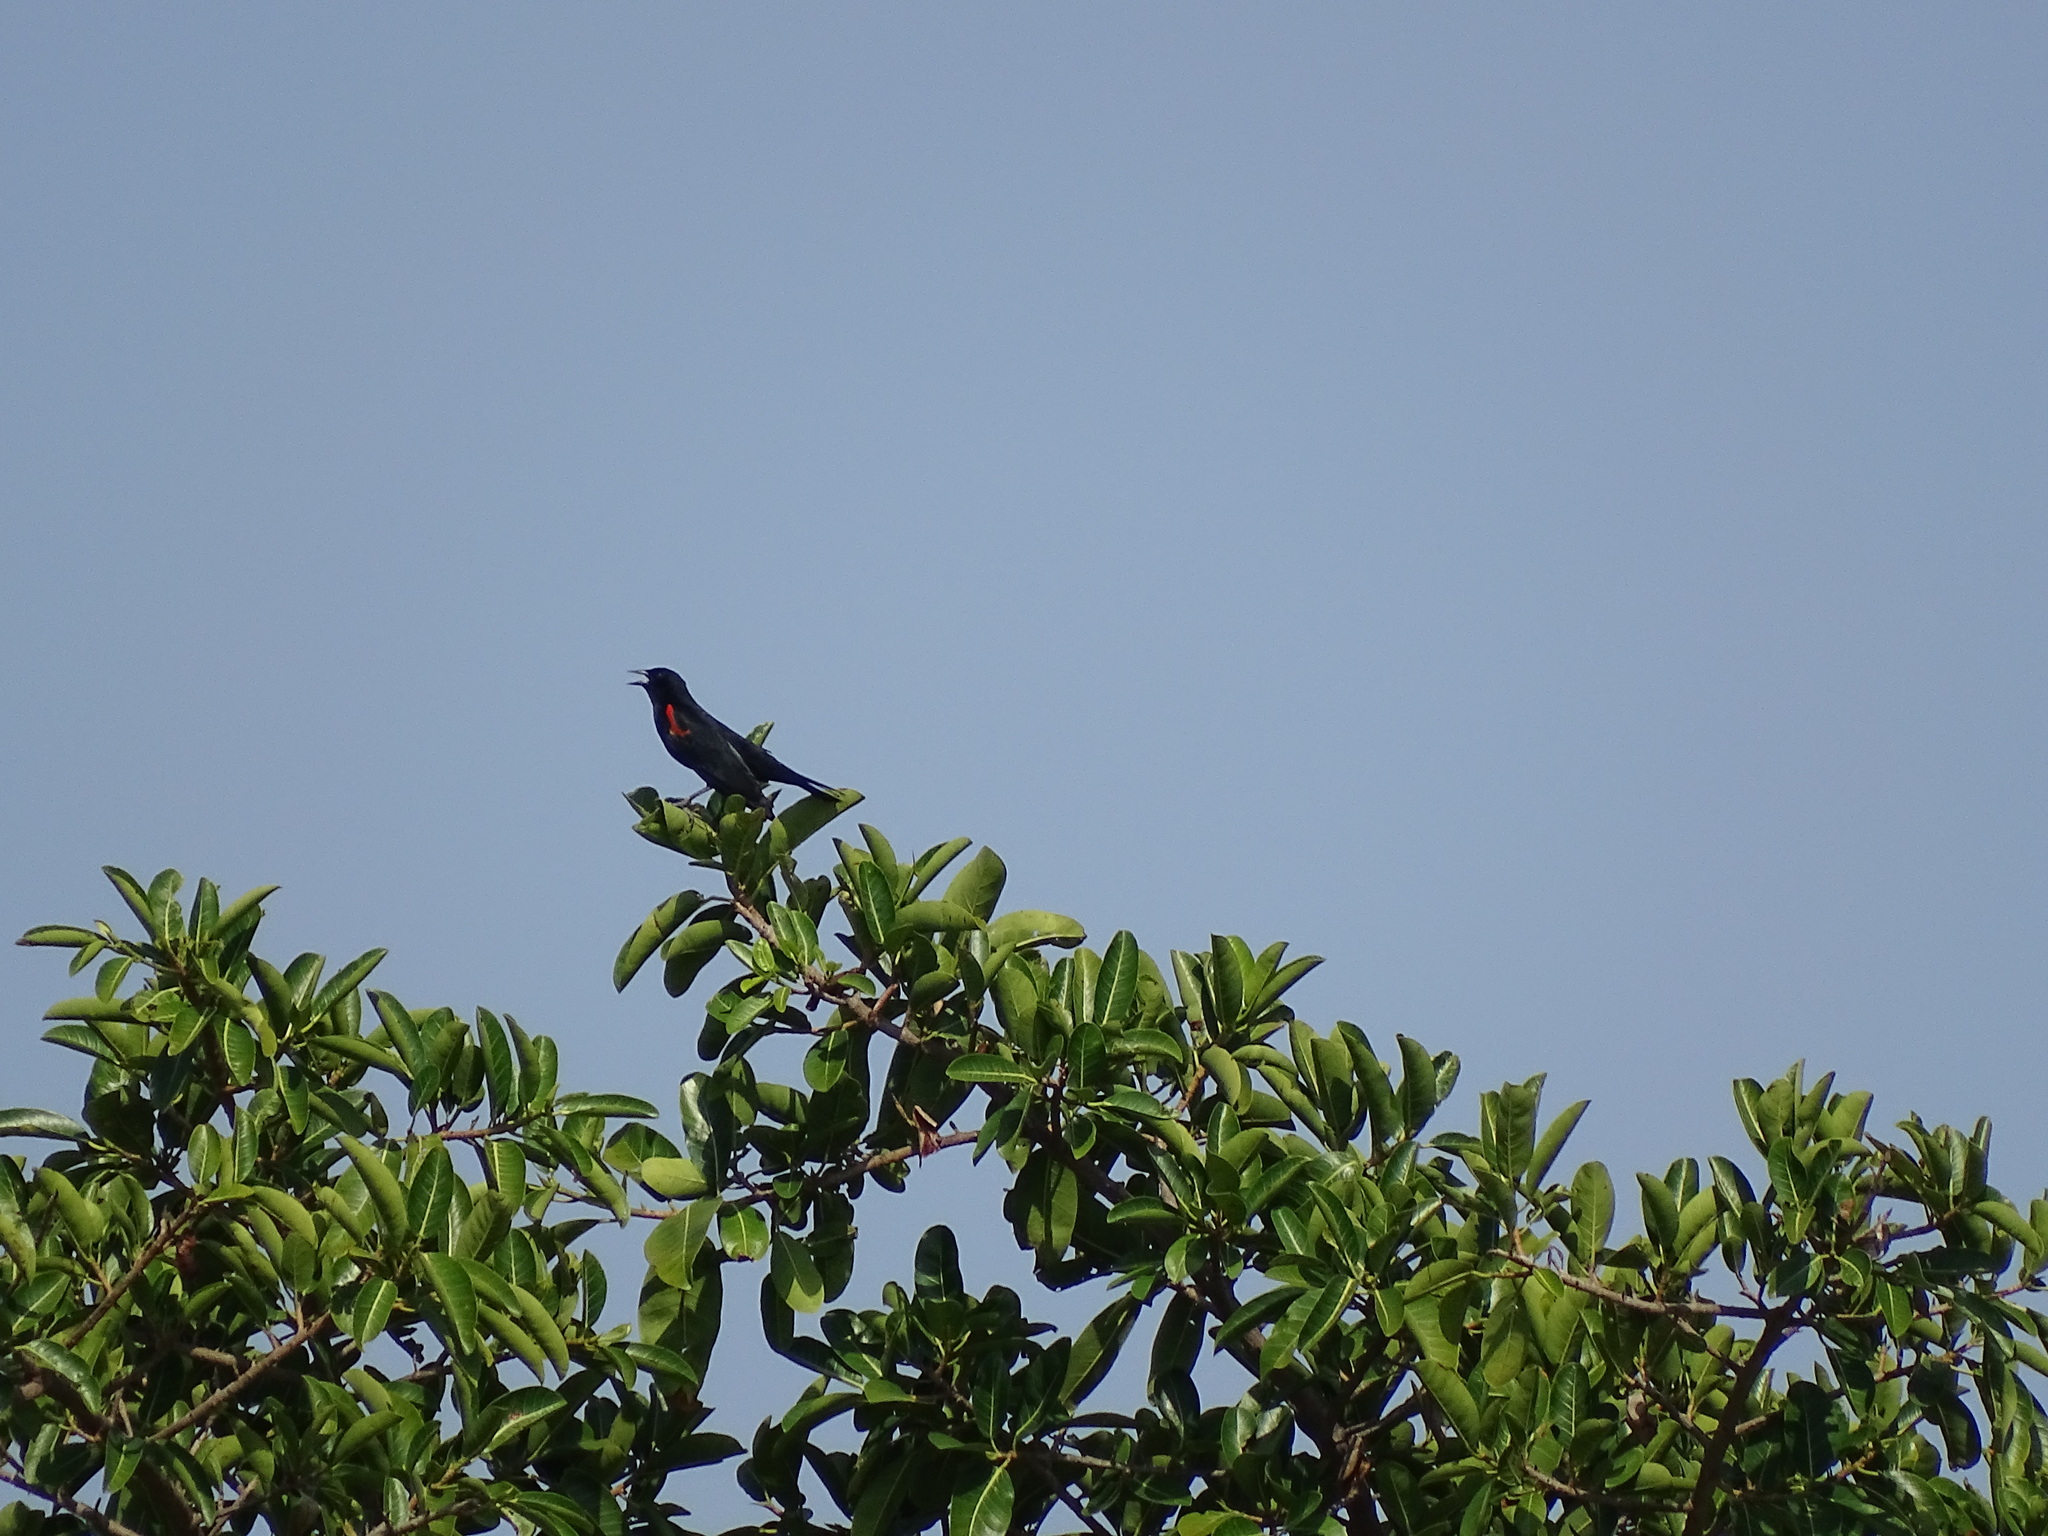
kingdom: Animalia
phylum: Chordata
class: Aves
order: Passeriformes
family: Icteridae
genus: Agelaius
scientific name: Agelaius phoeniceus
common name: Red-winged blackbird
